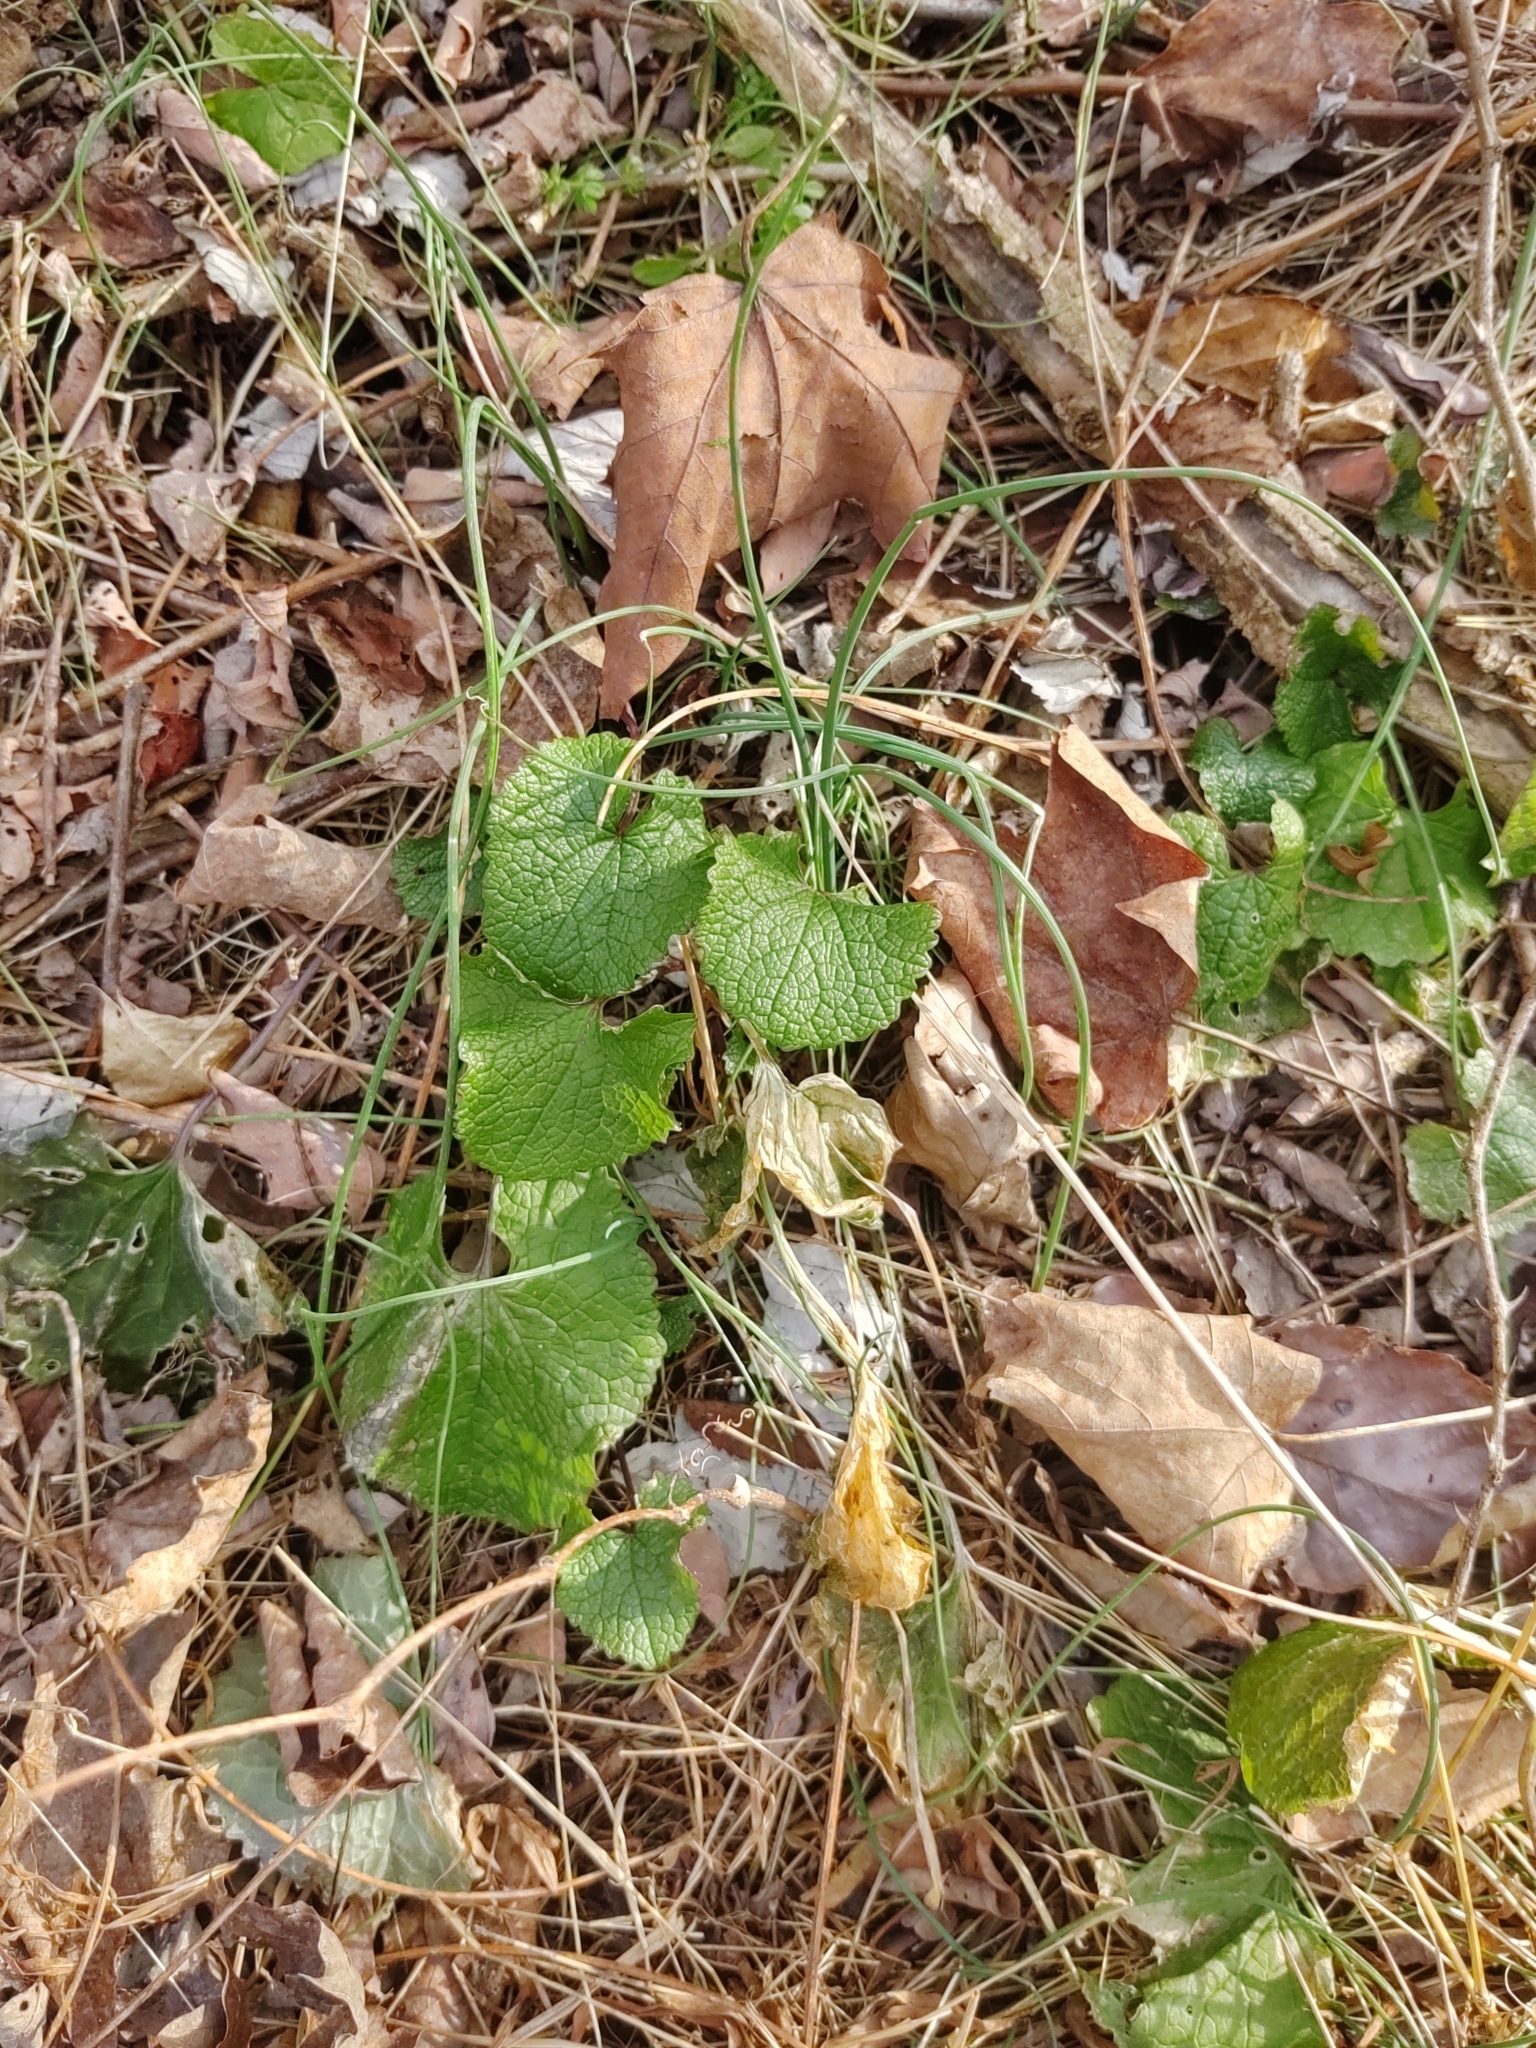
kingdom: Plantae
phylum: Tracheophyta
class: Magnoliopsida
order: Brassicales
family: Brassicaceae
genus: Alliaria
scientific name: Alliaria petiolata
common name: Garlic mustard
